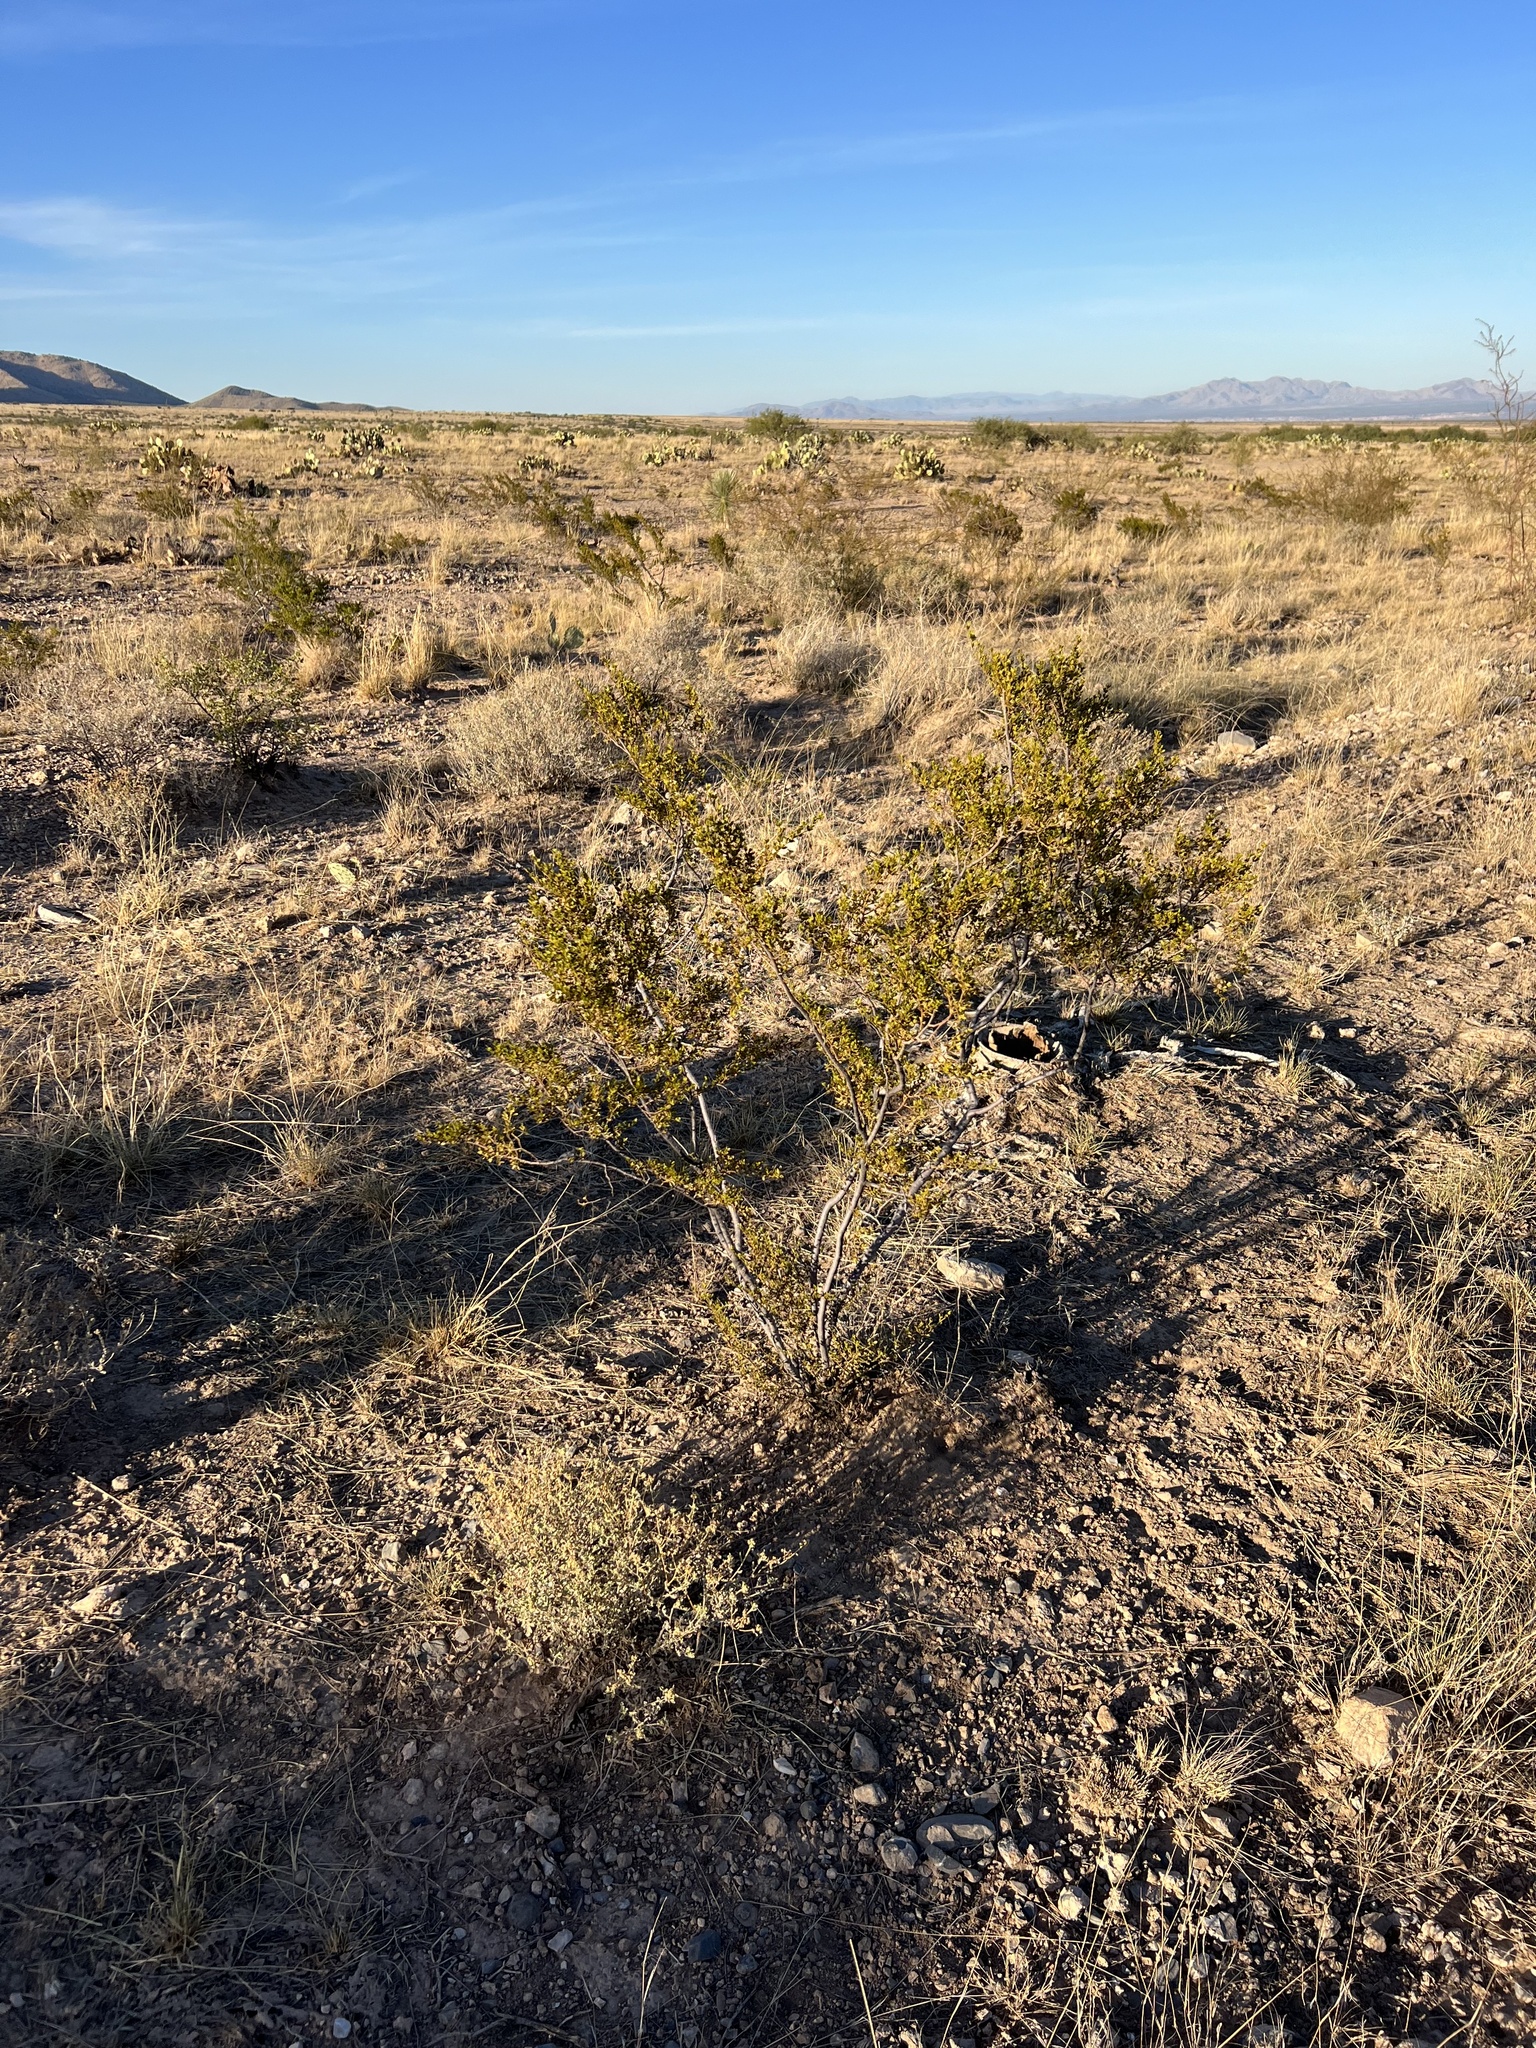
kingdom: Plantae
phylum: Tracheophyta
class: Magnoliopsida
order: Zygophyllales
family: Zygophyllaceae
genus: Larrea
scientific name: Larrea tridentata
